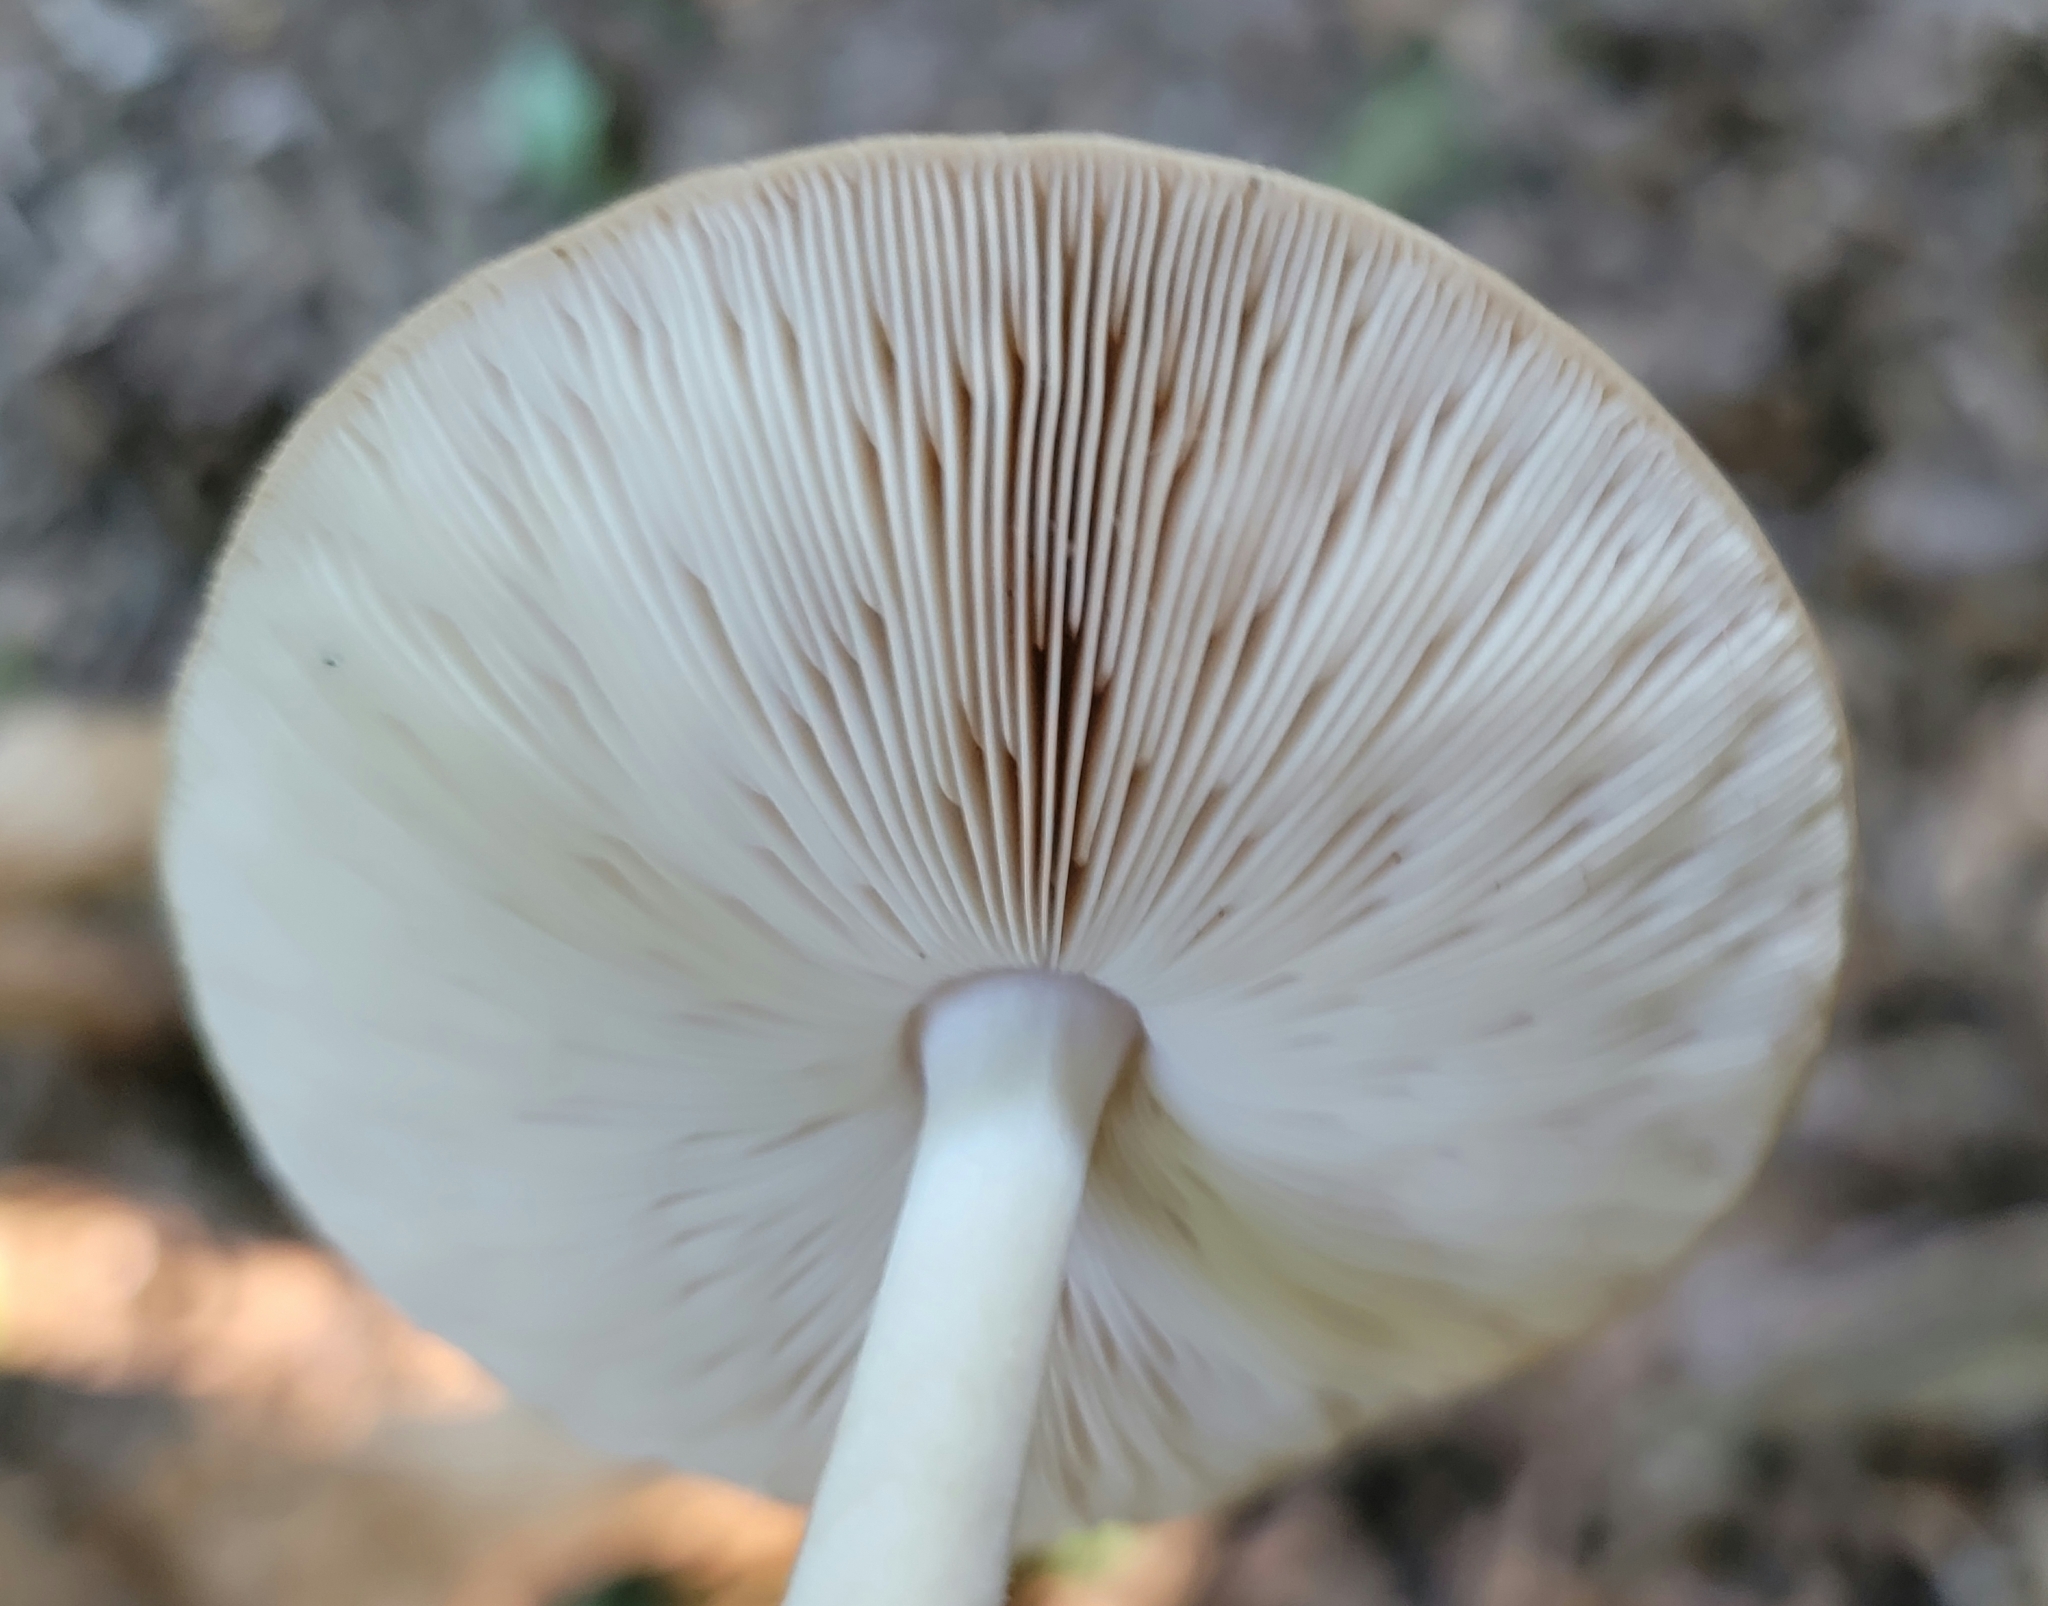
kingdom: Fungi
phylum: Basidiomycota
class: Agaricomycetes
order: Agaricales
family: Pluteaceae
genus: Pluteus
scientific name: Pluteus cervinus
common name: Deer shield
